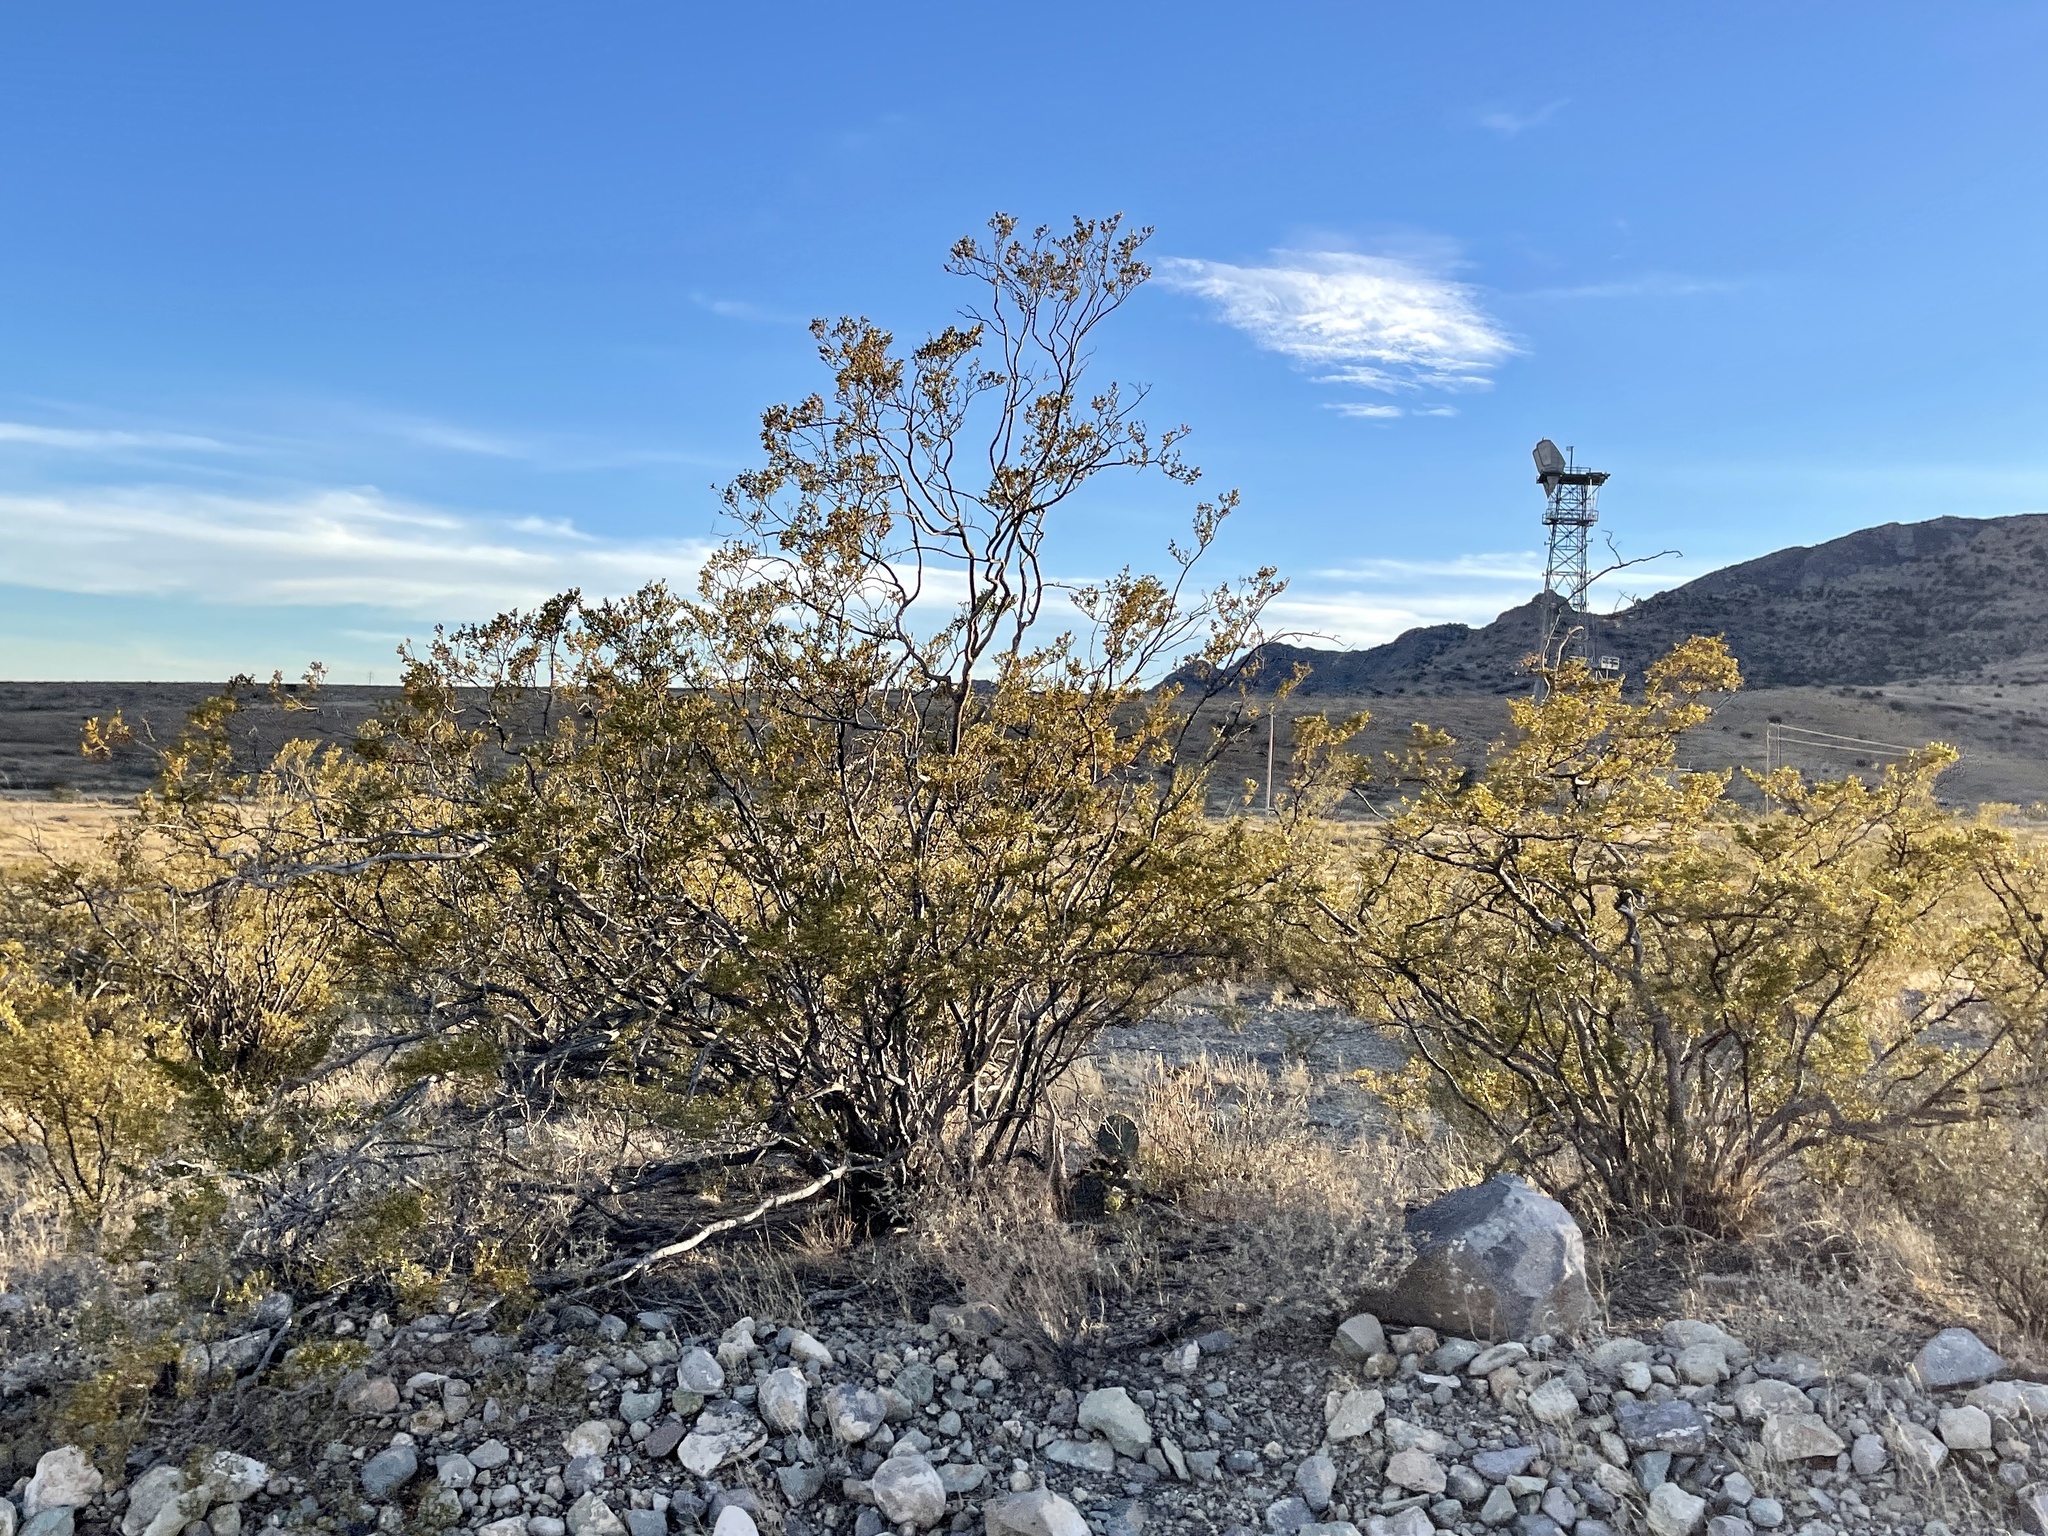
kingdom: Plantae
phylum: Tracheophyta
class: Magnoliopsida
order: Zygophyllales
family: Zygophyllaceae
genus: Larrea
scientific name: Larrea tridentata
